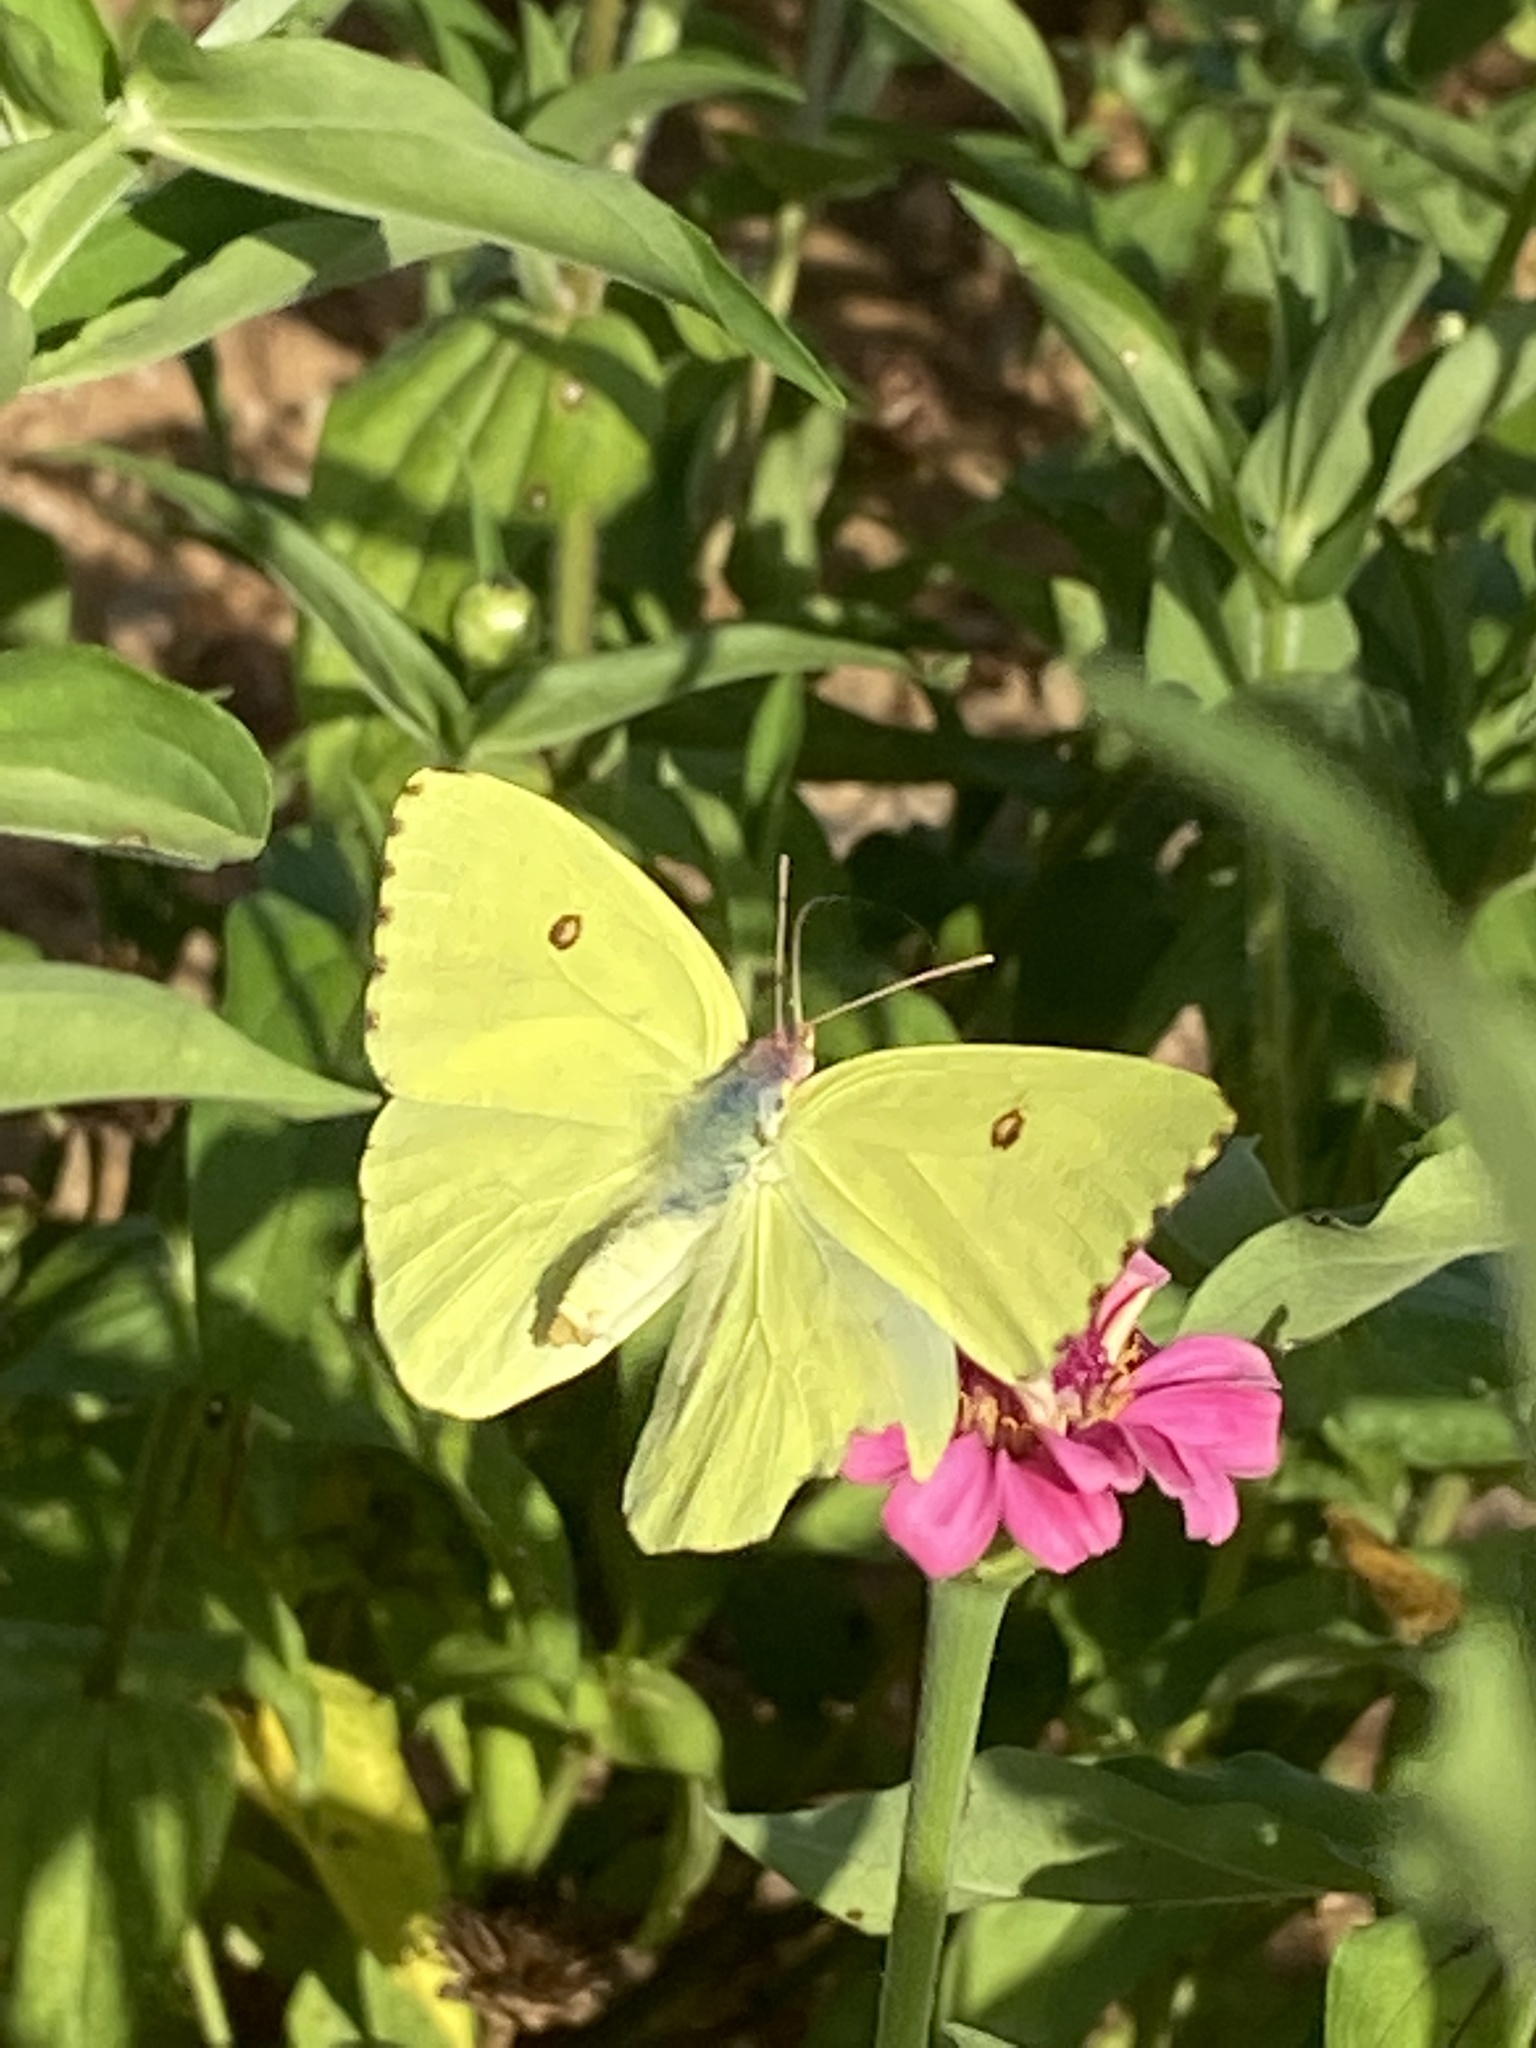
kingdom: Animalia
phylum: Arthropoda
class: Insecta
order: Lepidoptera
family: Pieridae
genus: Phoebis
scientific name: Phoebis sennae
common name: Cloudless sulphur
